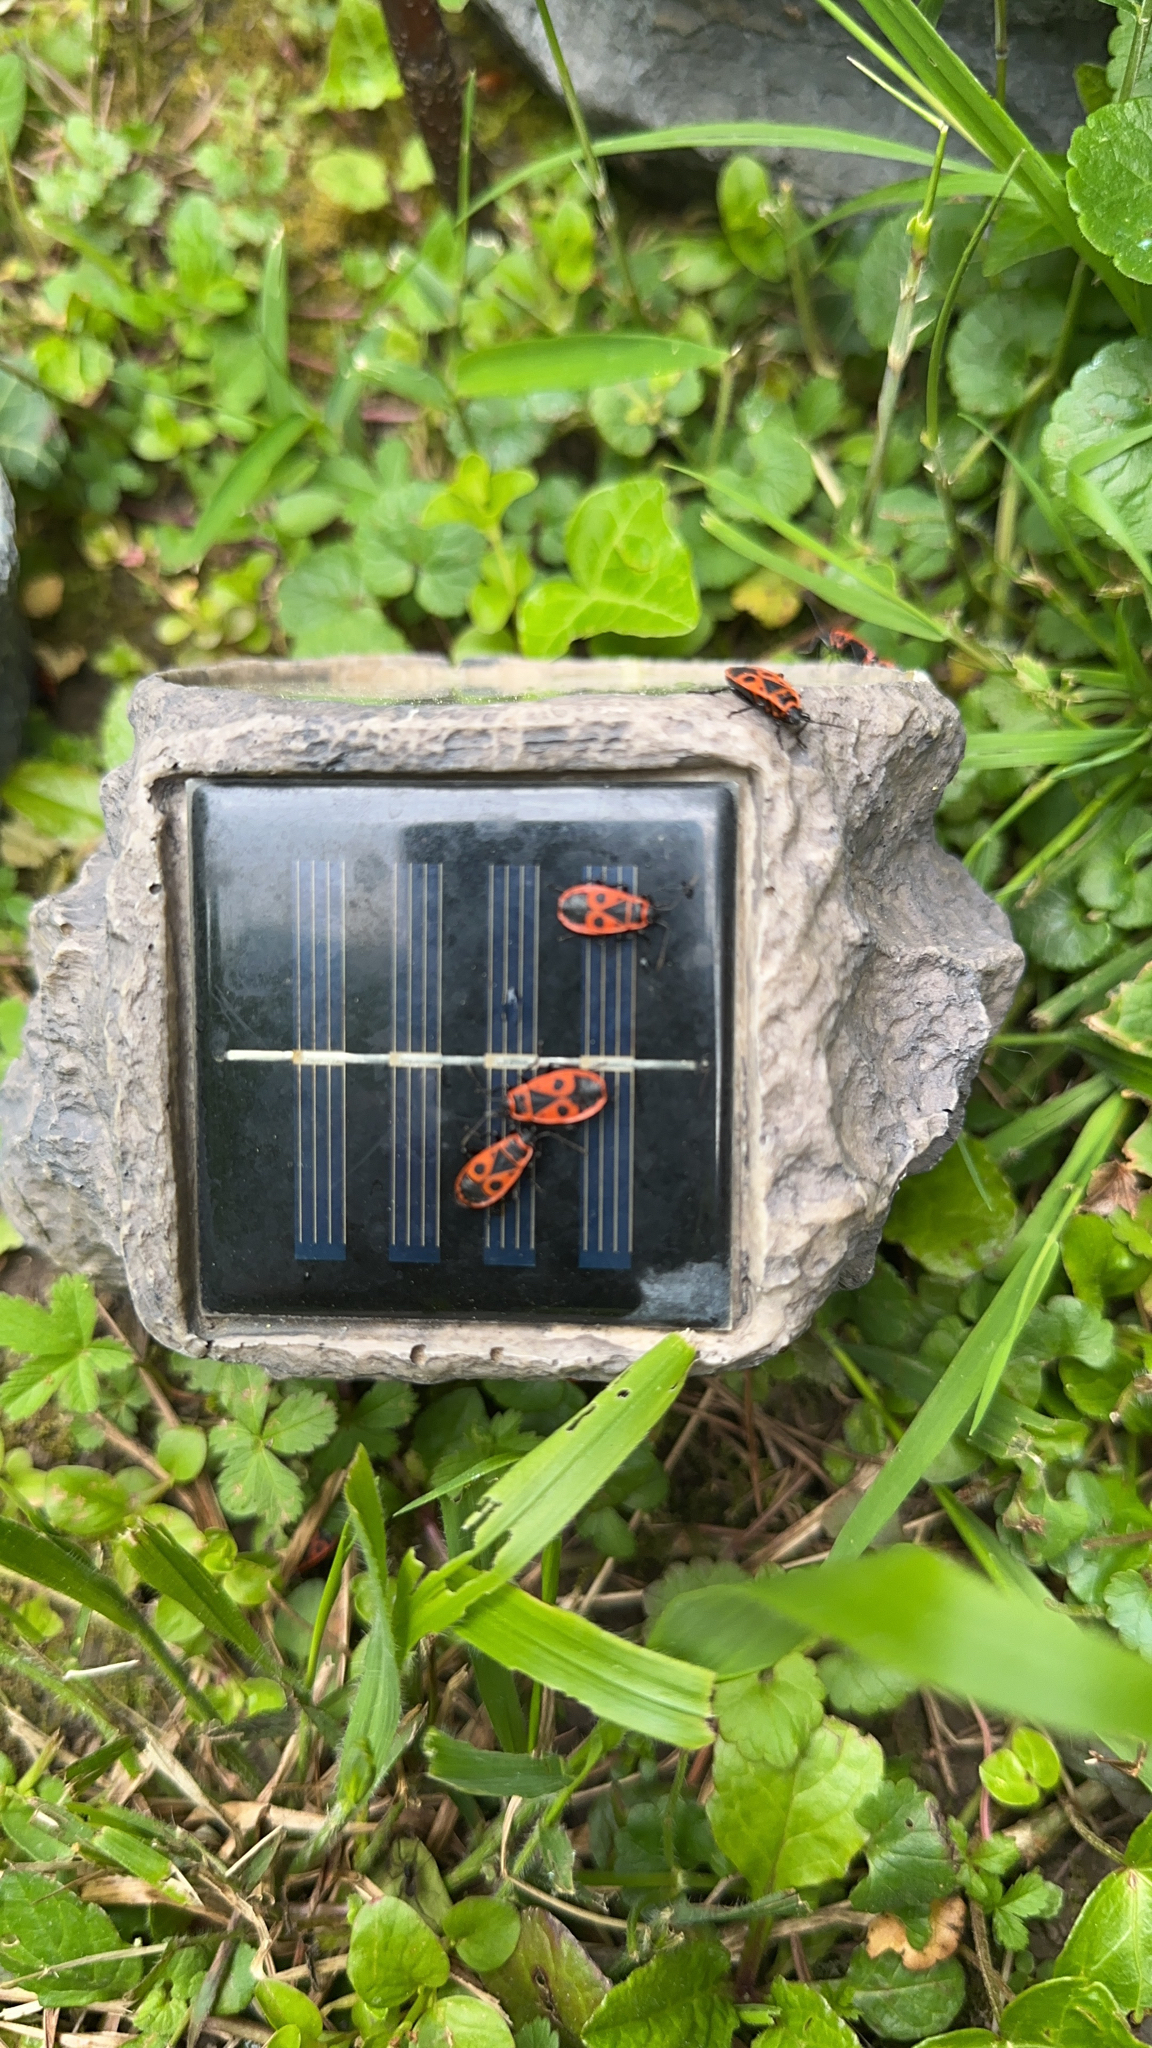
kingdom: Animalia
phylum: Arthropoda
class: Insecta
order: Hemiptera
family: Pyrrhocoridae
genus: Pyrrhocoris
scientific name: Pyrrhocoris apterus
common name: Firebug
